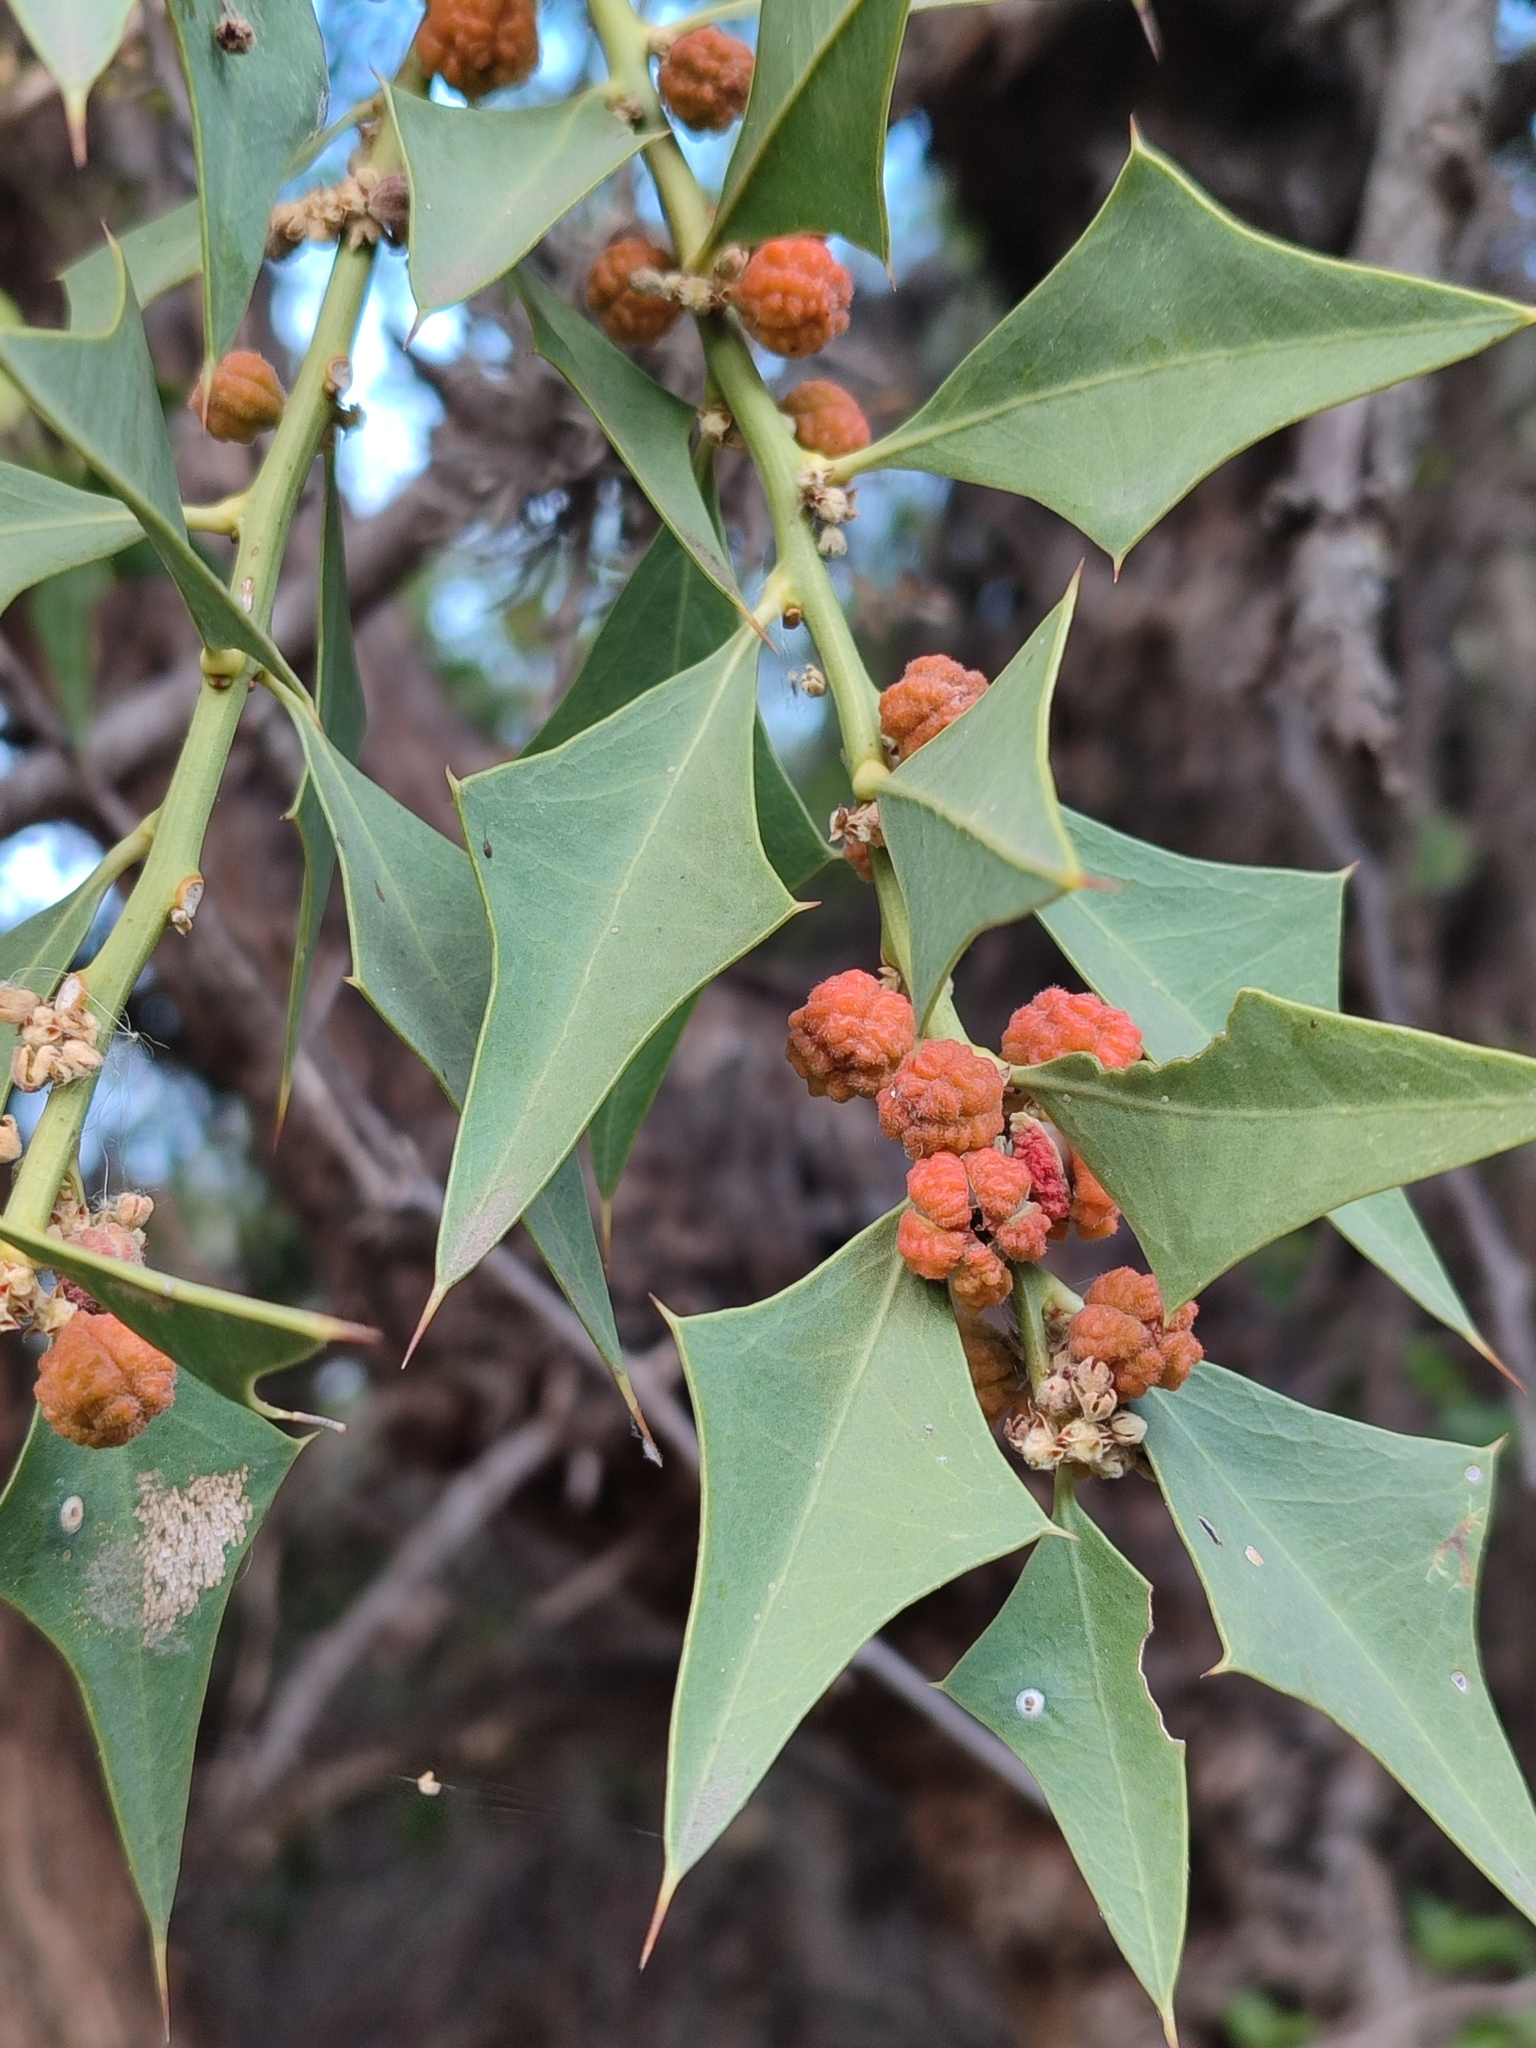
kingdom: Plantae
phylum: Tracheophyta
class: Magnoliopsida
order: Santalales
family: Cervantesiaceae
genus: Jodina
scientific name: Jodina rhombifolia
